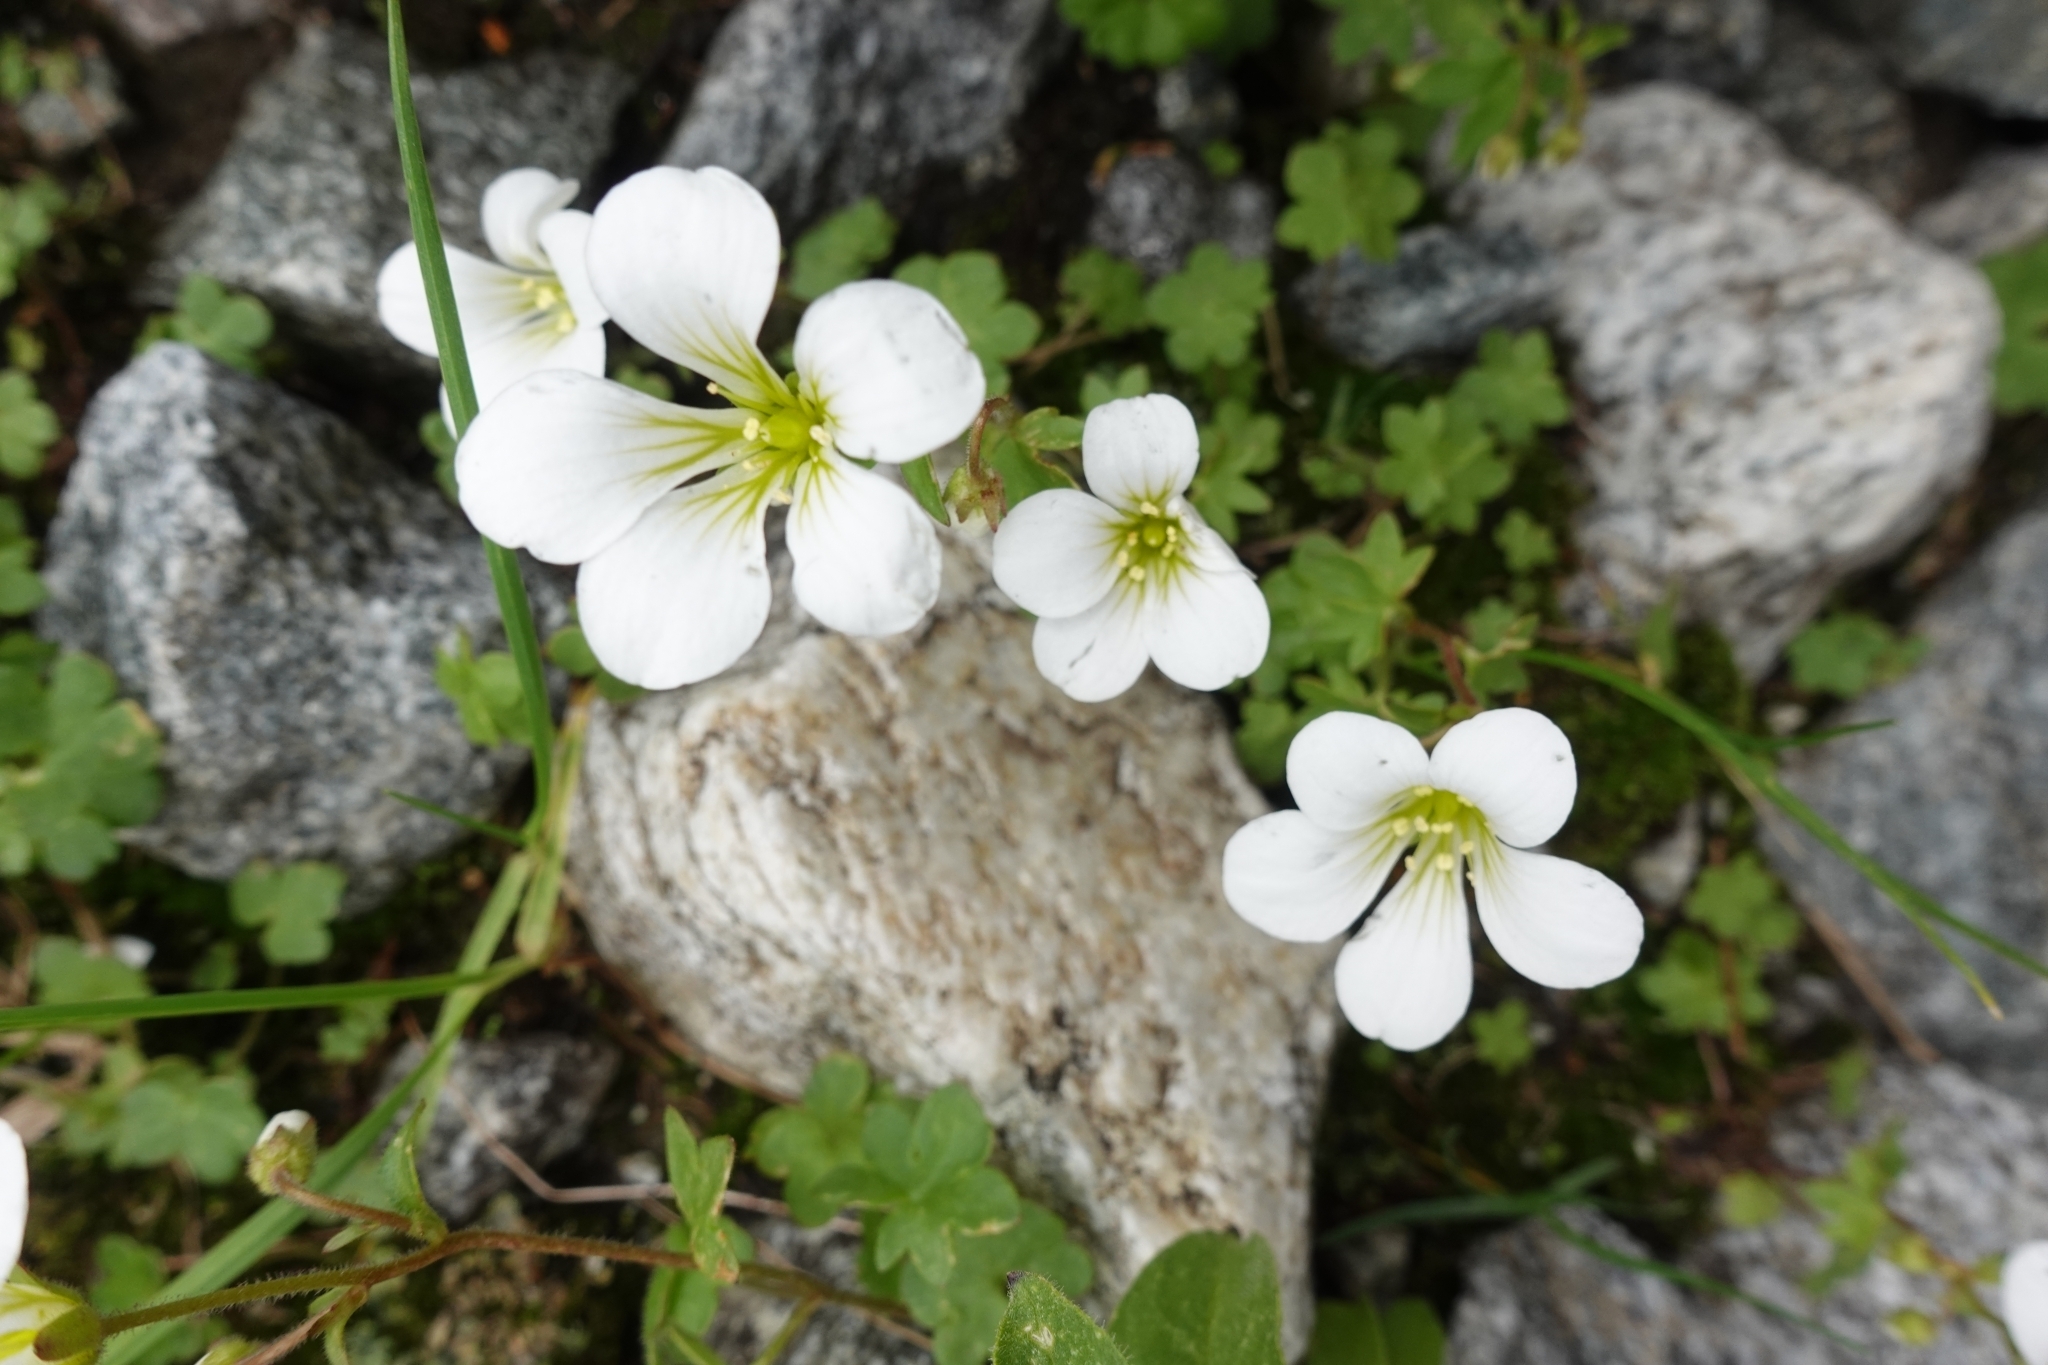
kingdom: Plantae
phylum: Tracheophyta
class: Magnoliopsida
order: Saxifragales
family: Saxifragaceae
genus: Saxifraga
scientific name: Saxifraga sibirica
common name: Siberian saxifrage
